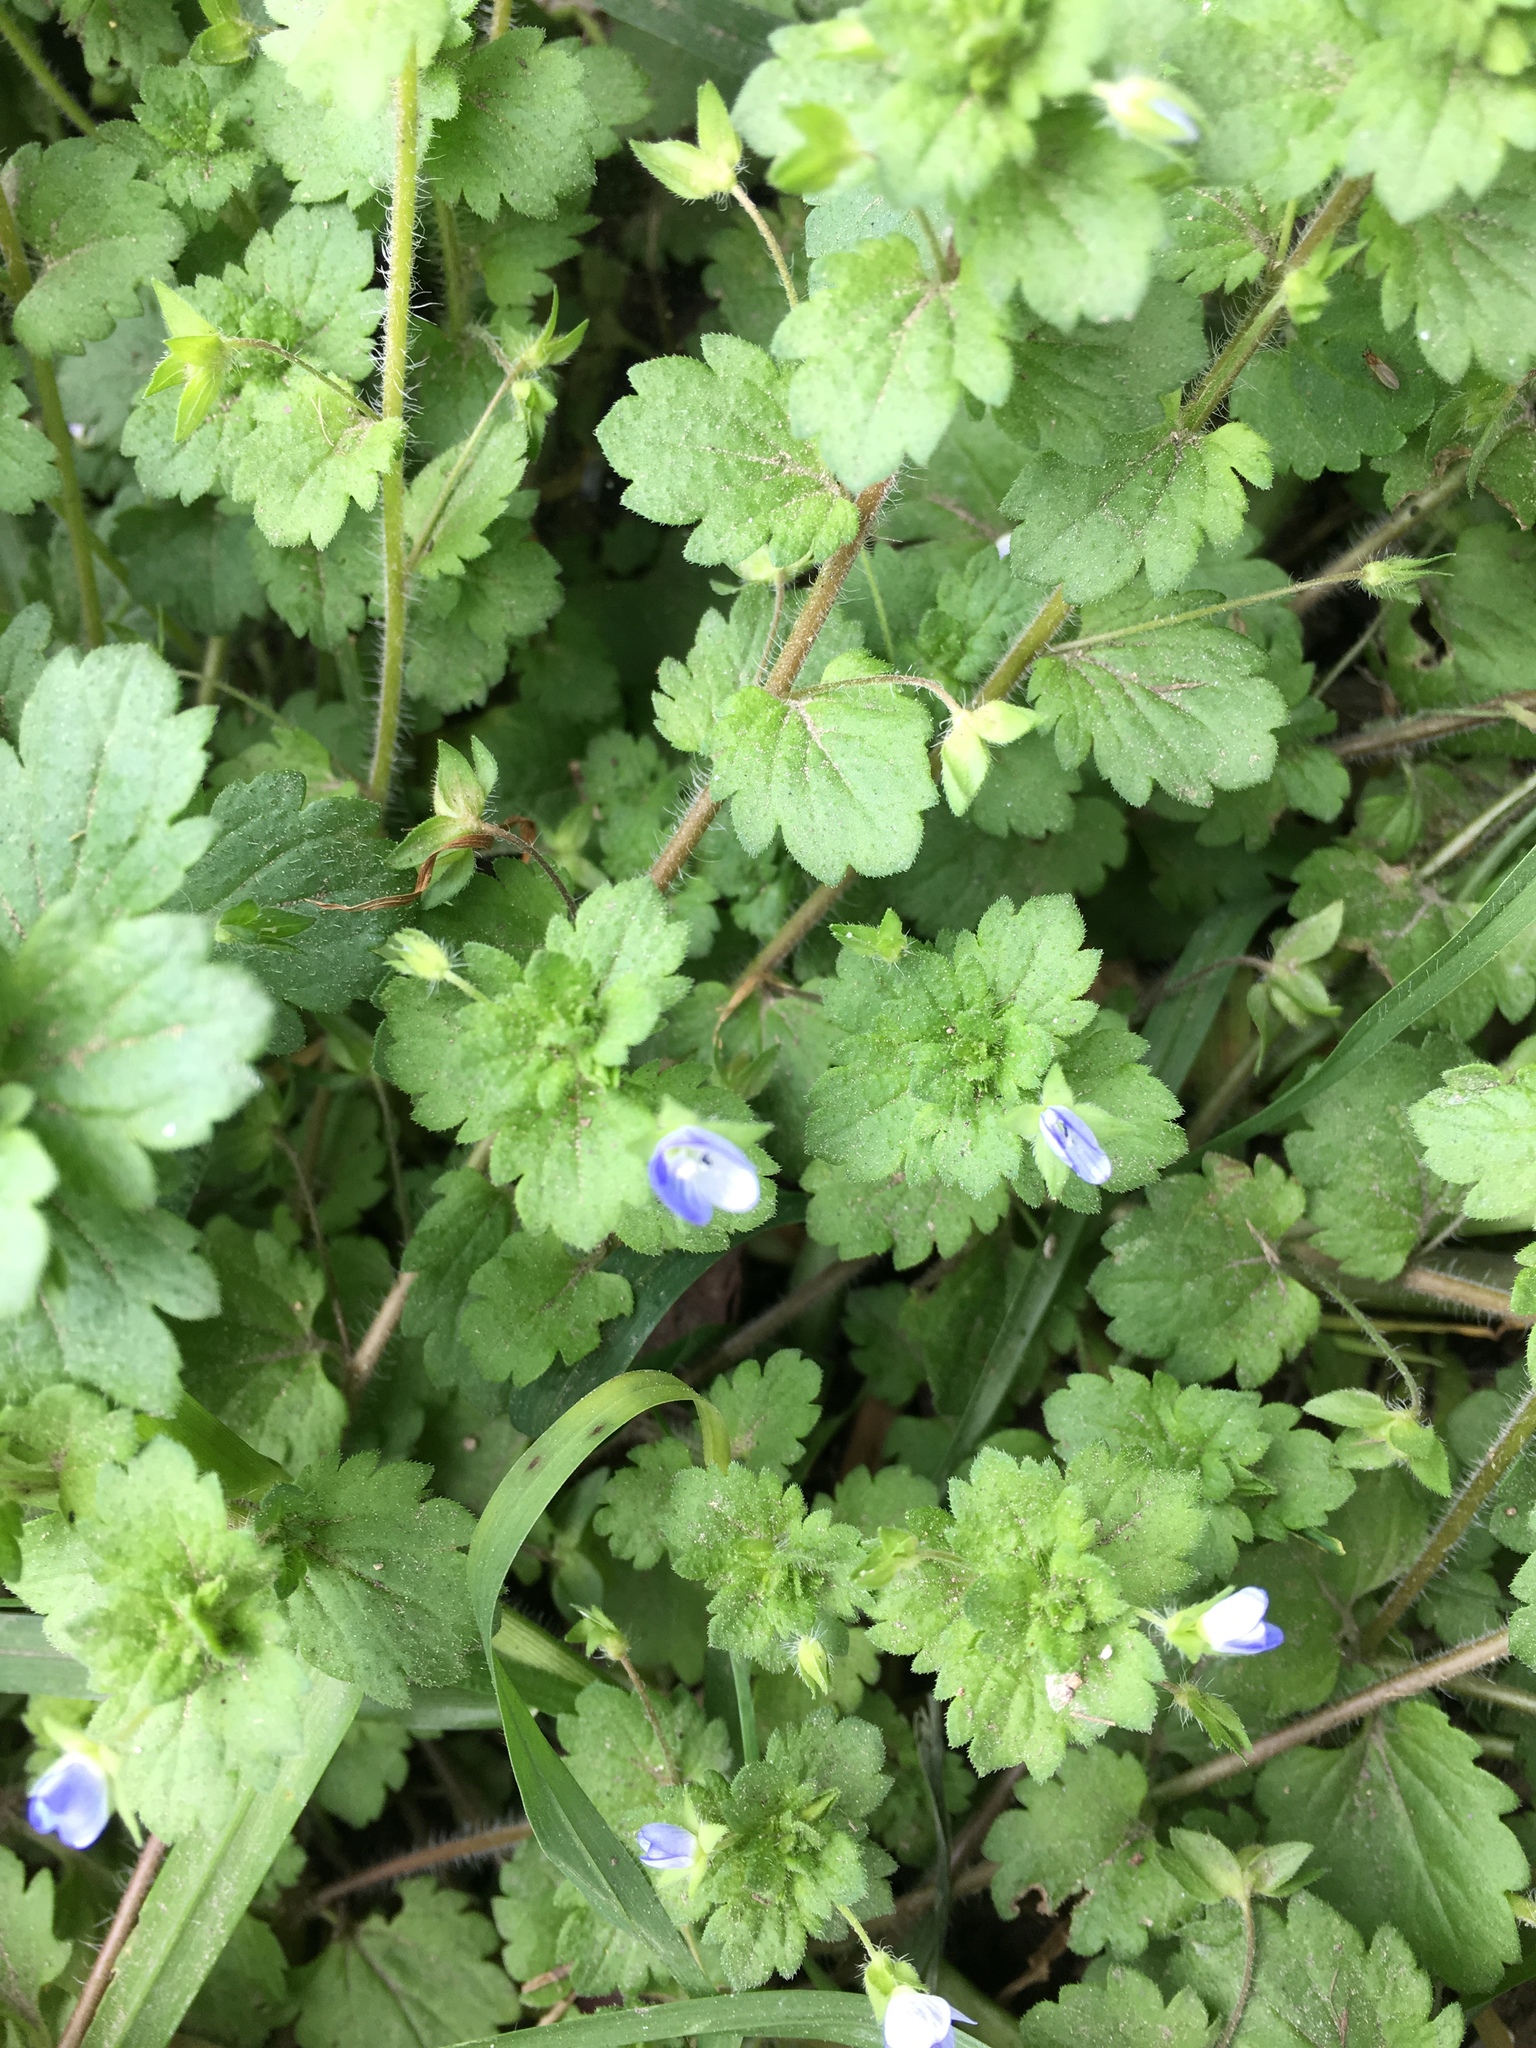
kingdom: Plantae
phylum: Tracheophyta
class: Magnoliopsida
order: Lamiales
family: Plantaginaceae
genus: Veronica
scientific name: Veronica persica
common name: Common field-speedwell
